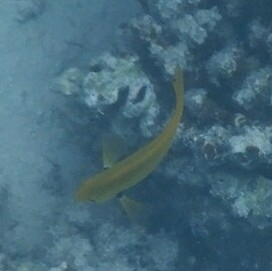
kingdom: Animalia
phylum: Chordata
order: Perciformes
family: Pomacentridae
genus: Pomacentrus
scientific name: Pomacentrus sulfureus
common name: Sulfur damsel
